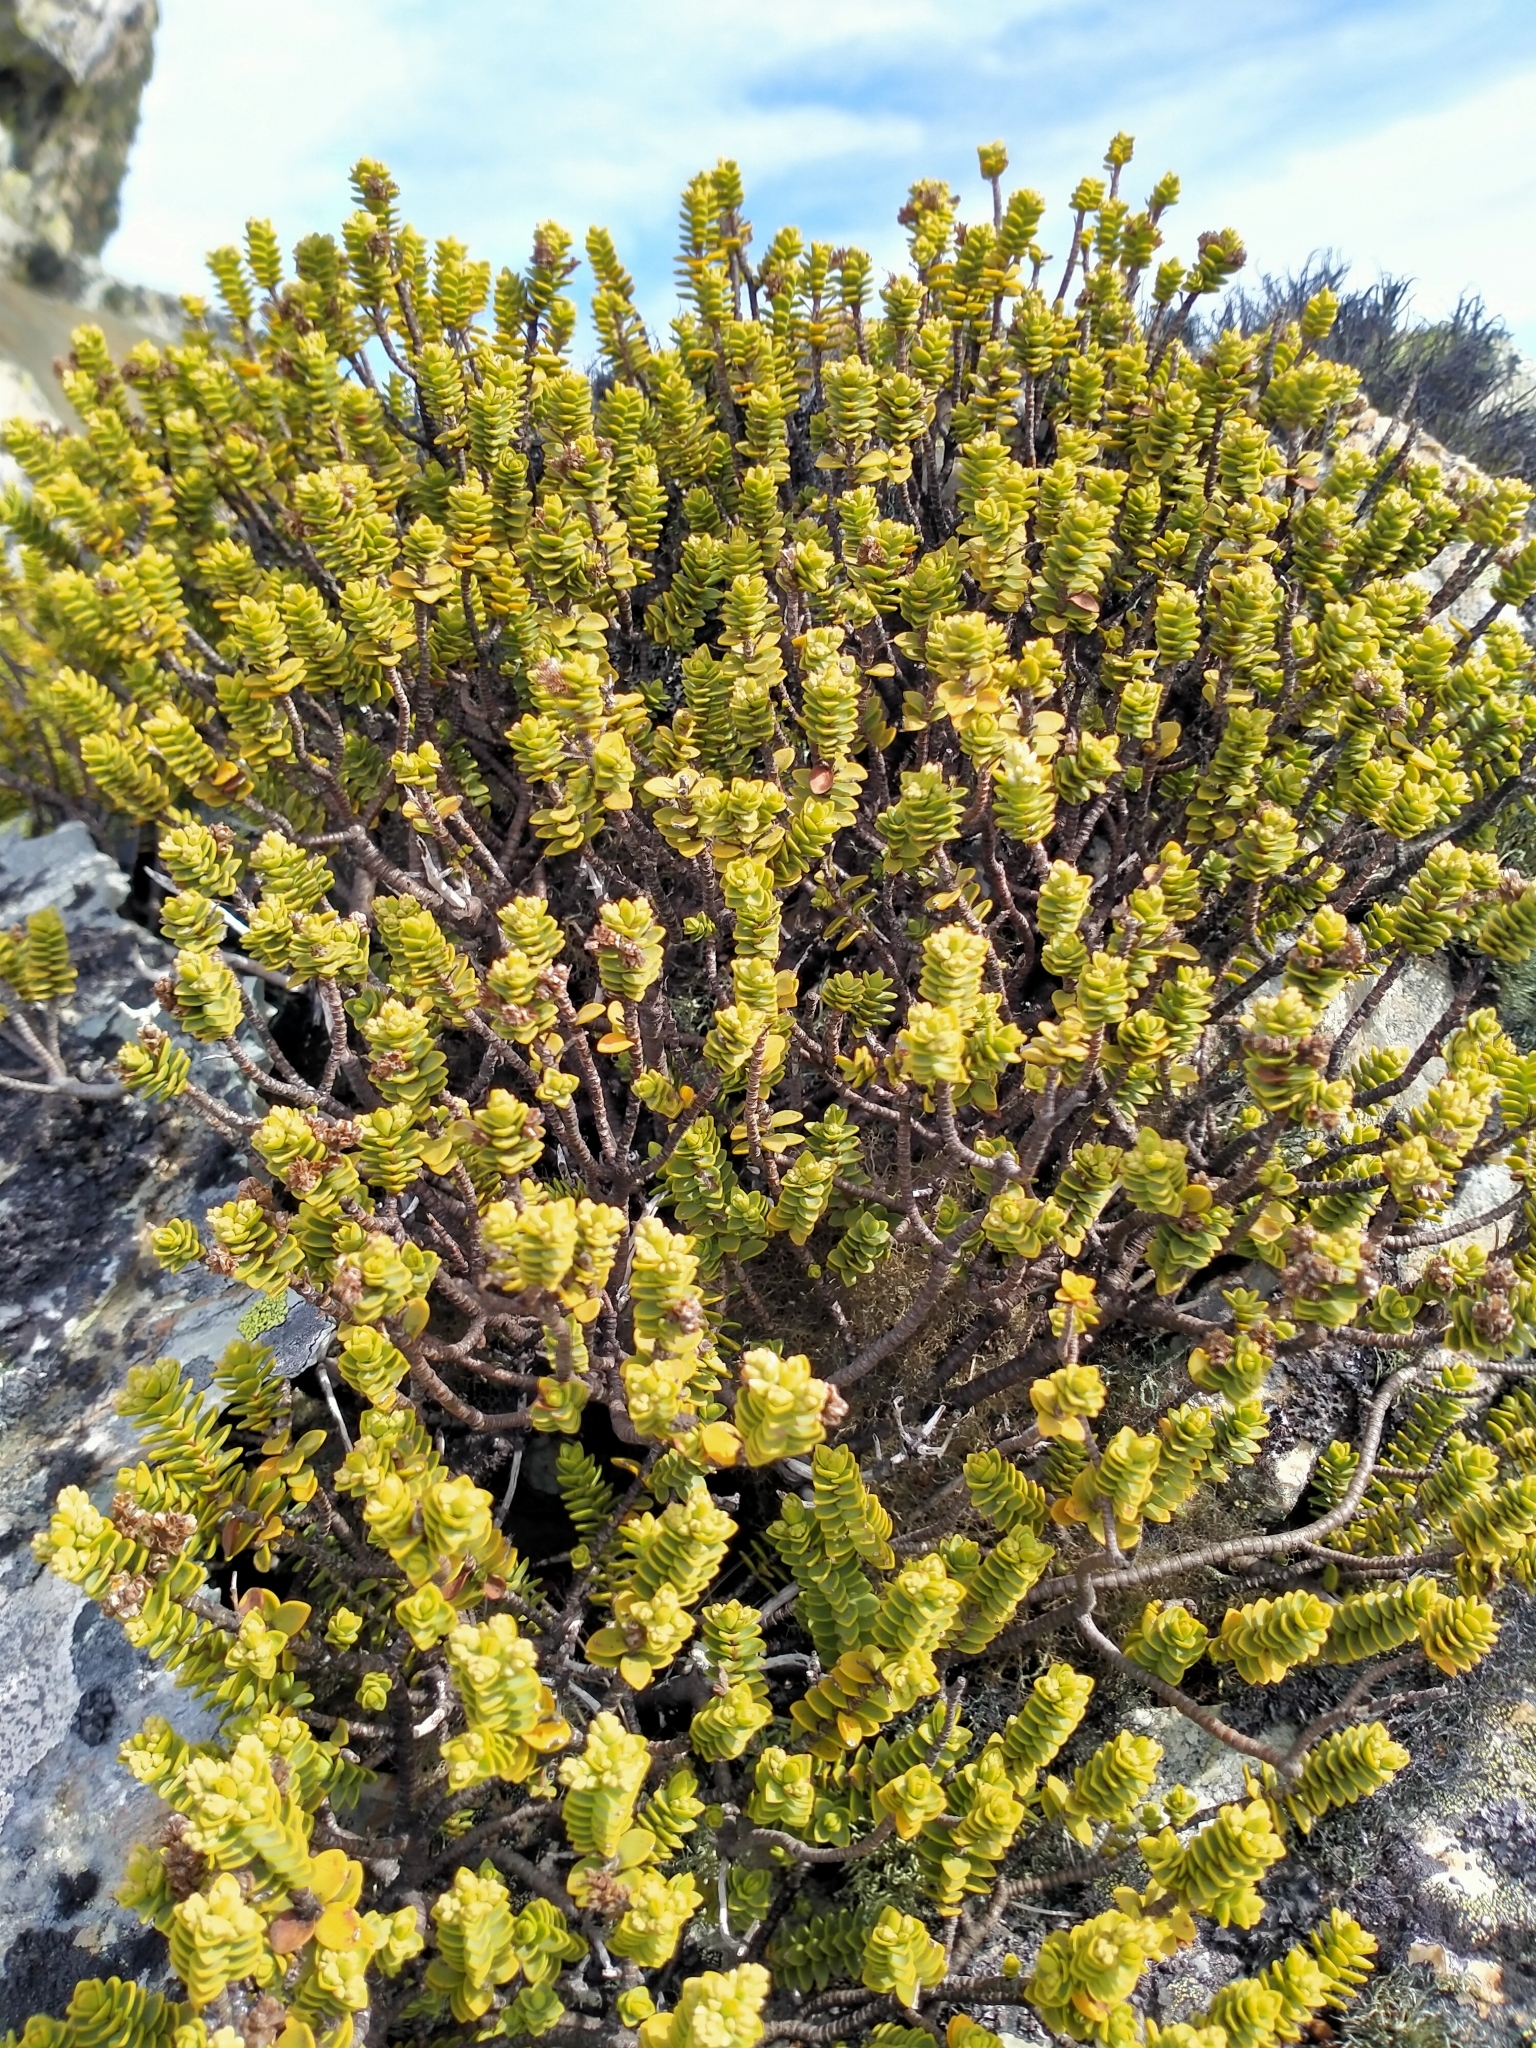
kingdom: Plantae
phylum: Tracheophyta
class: Magnoliopsida
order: Lamiales
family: Plantaginaceae
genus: Veronica
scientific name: Veronica buchananii
